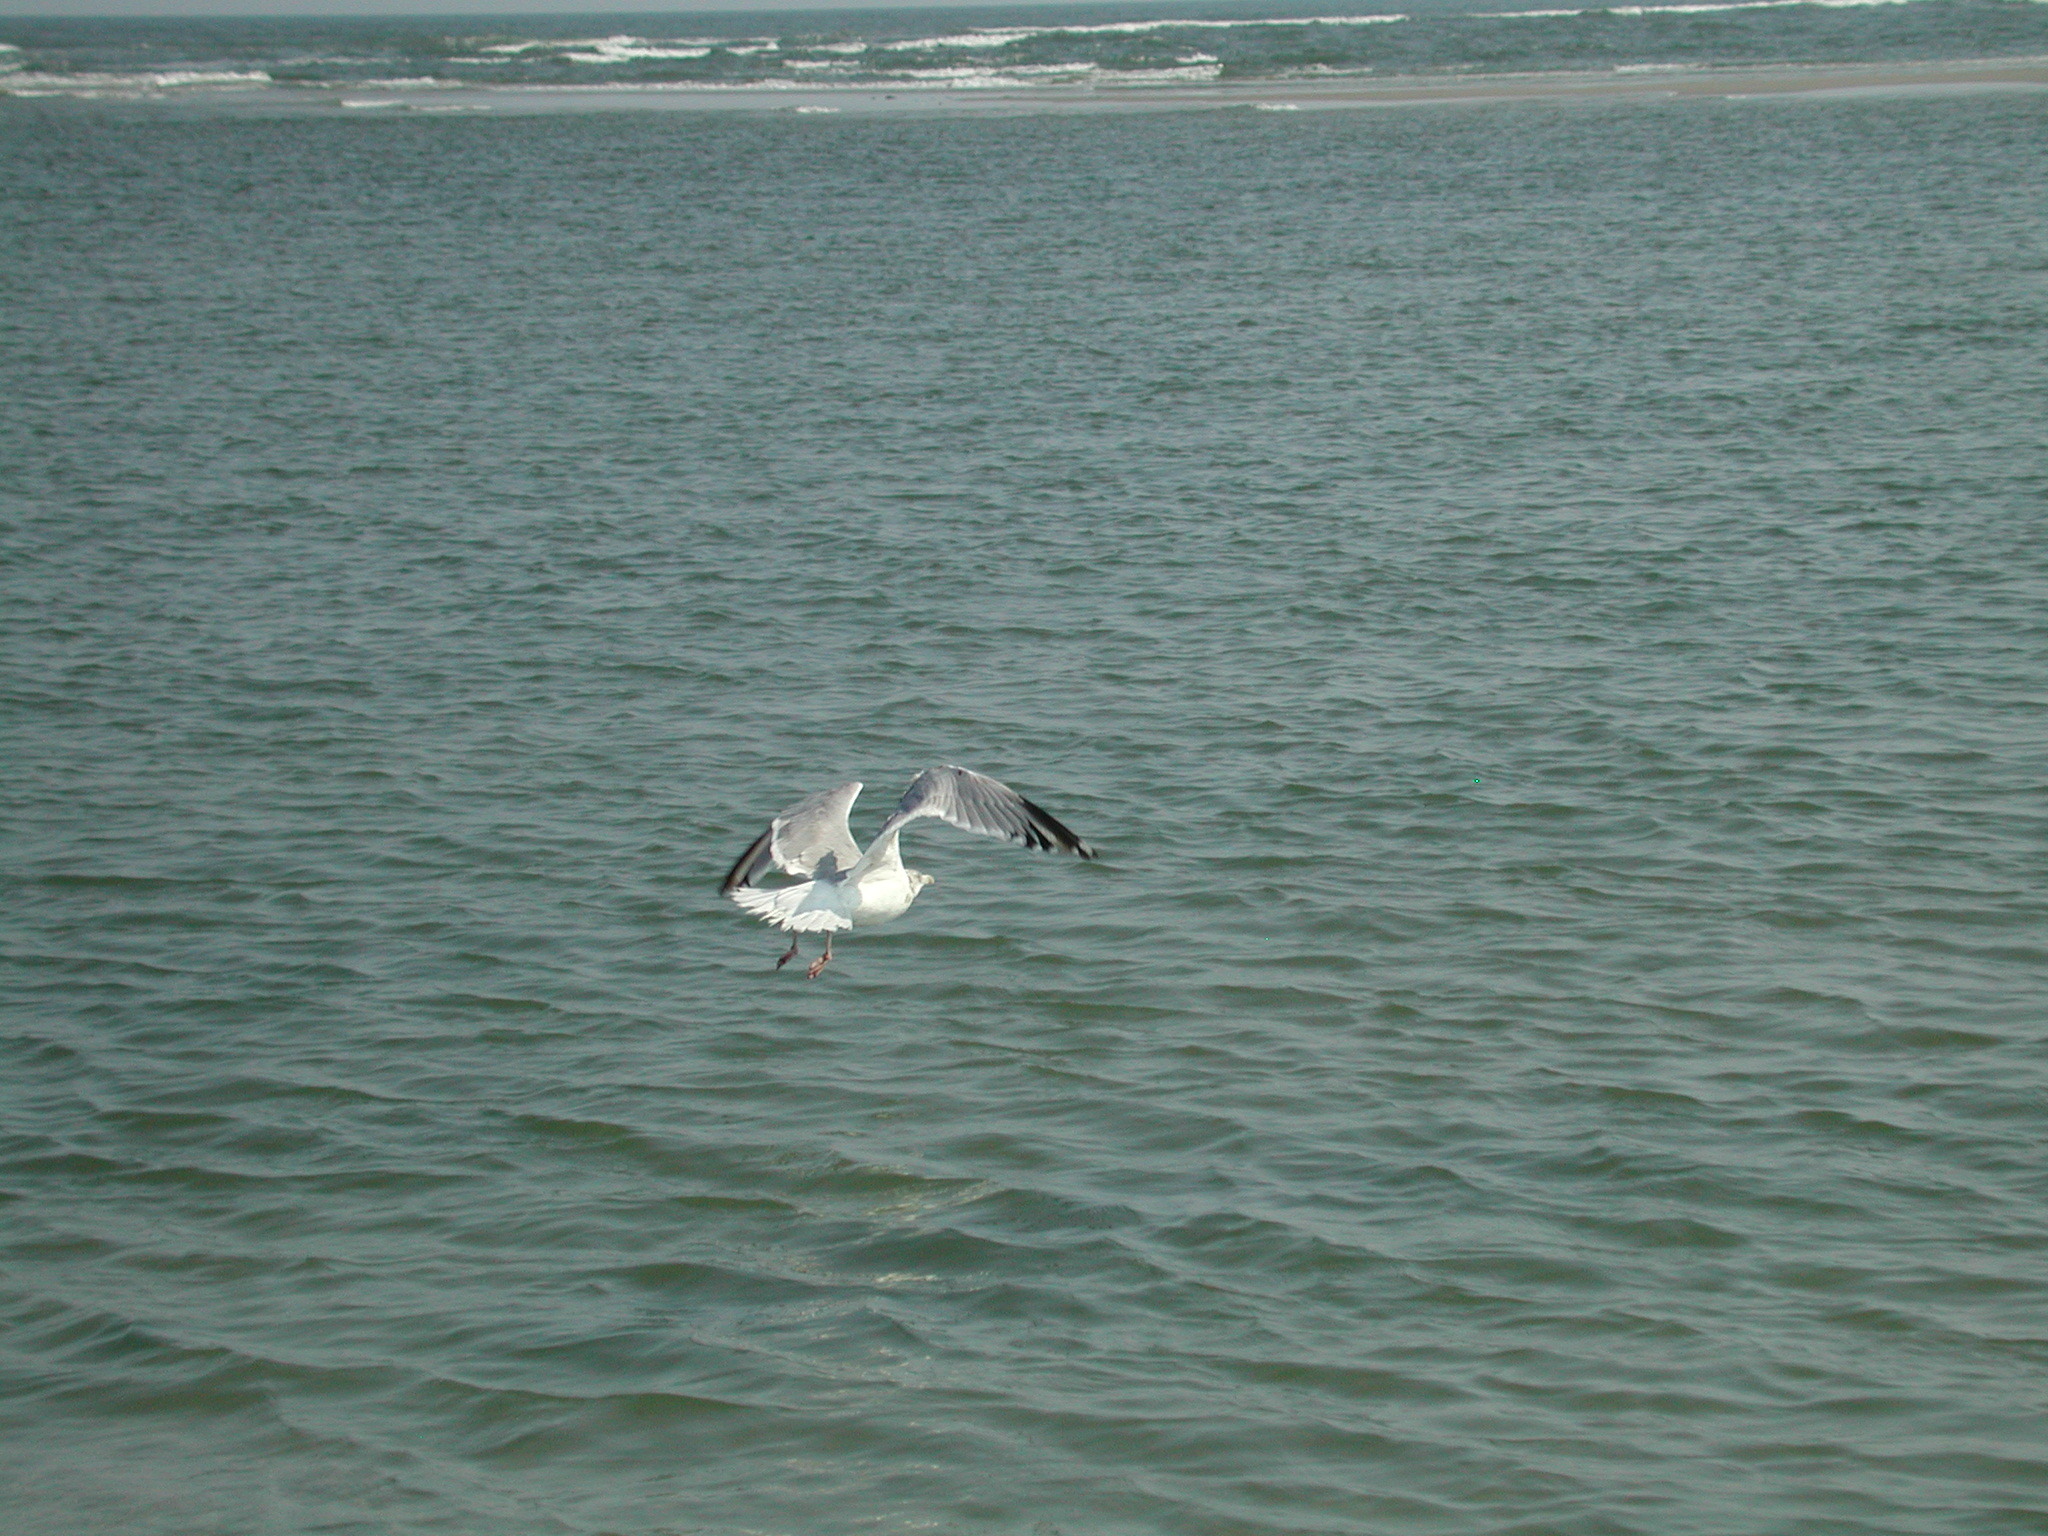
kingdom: Animalia
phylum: Chordata
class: Aves
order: Charadriiformes
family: Laridae
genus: Larus
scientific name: Larus argentatus
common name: Herring gull
